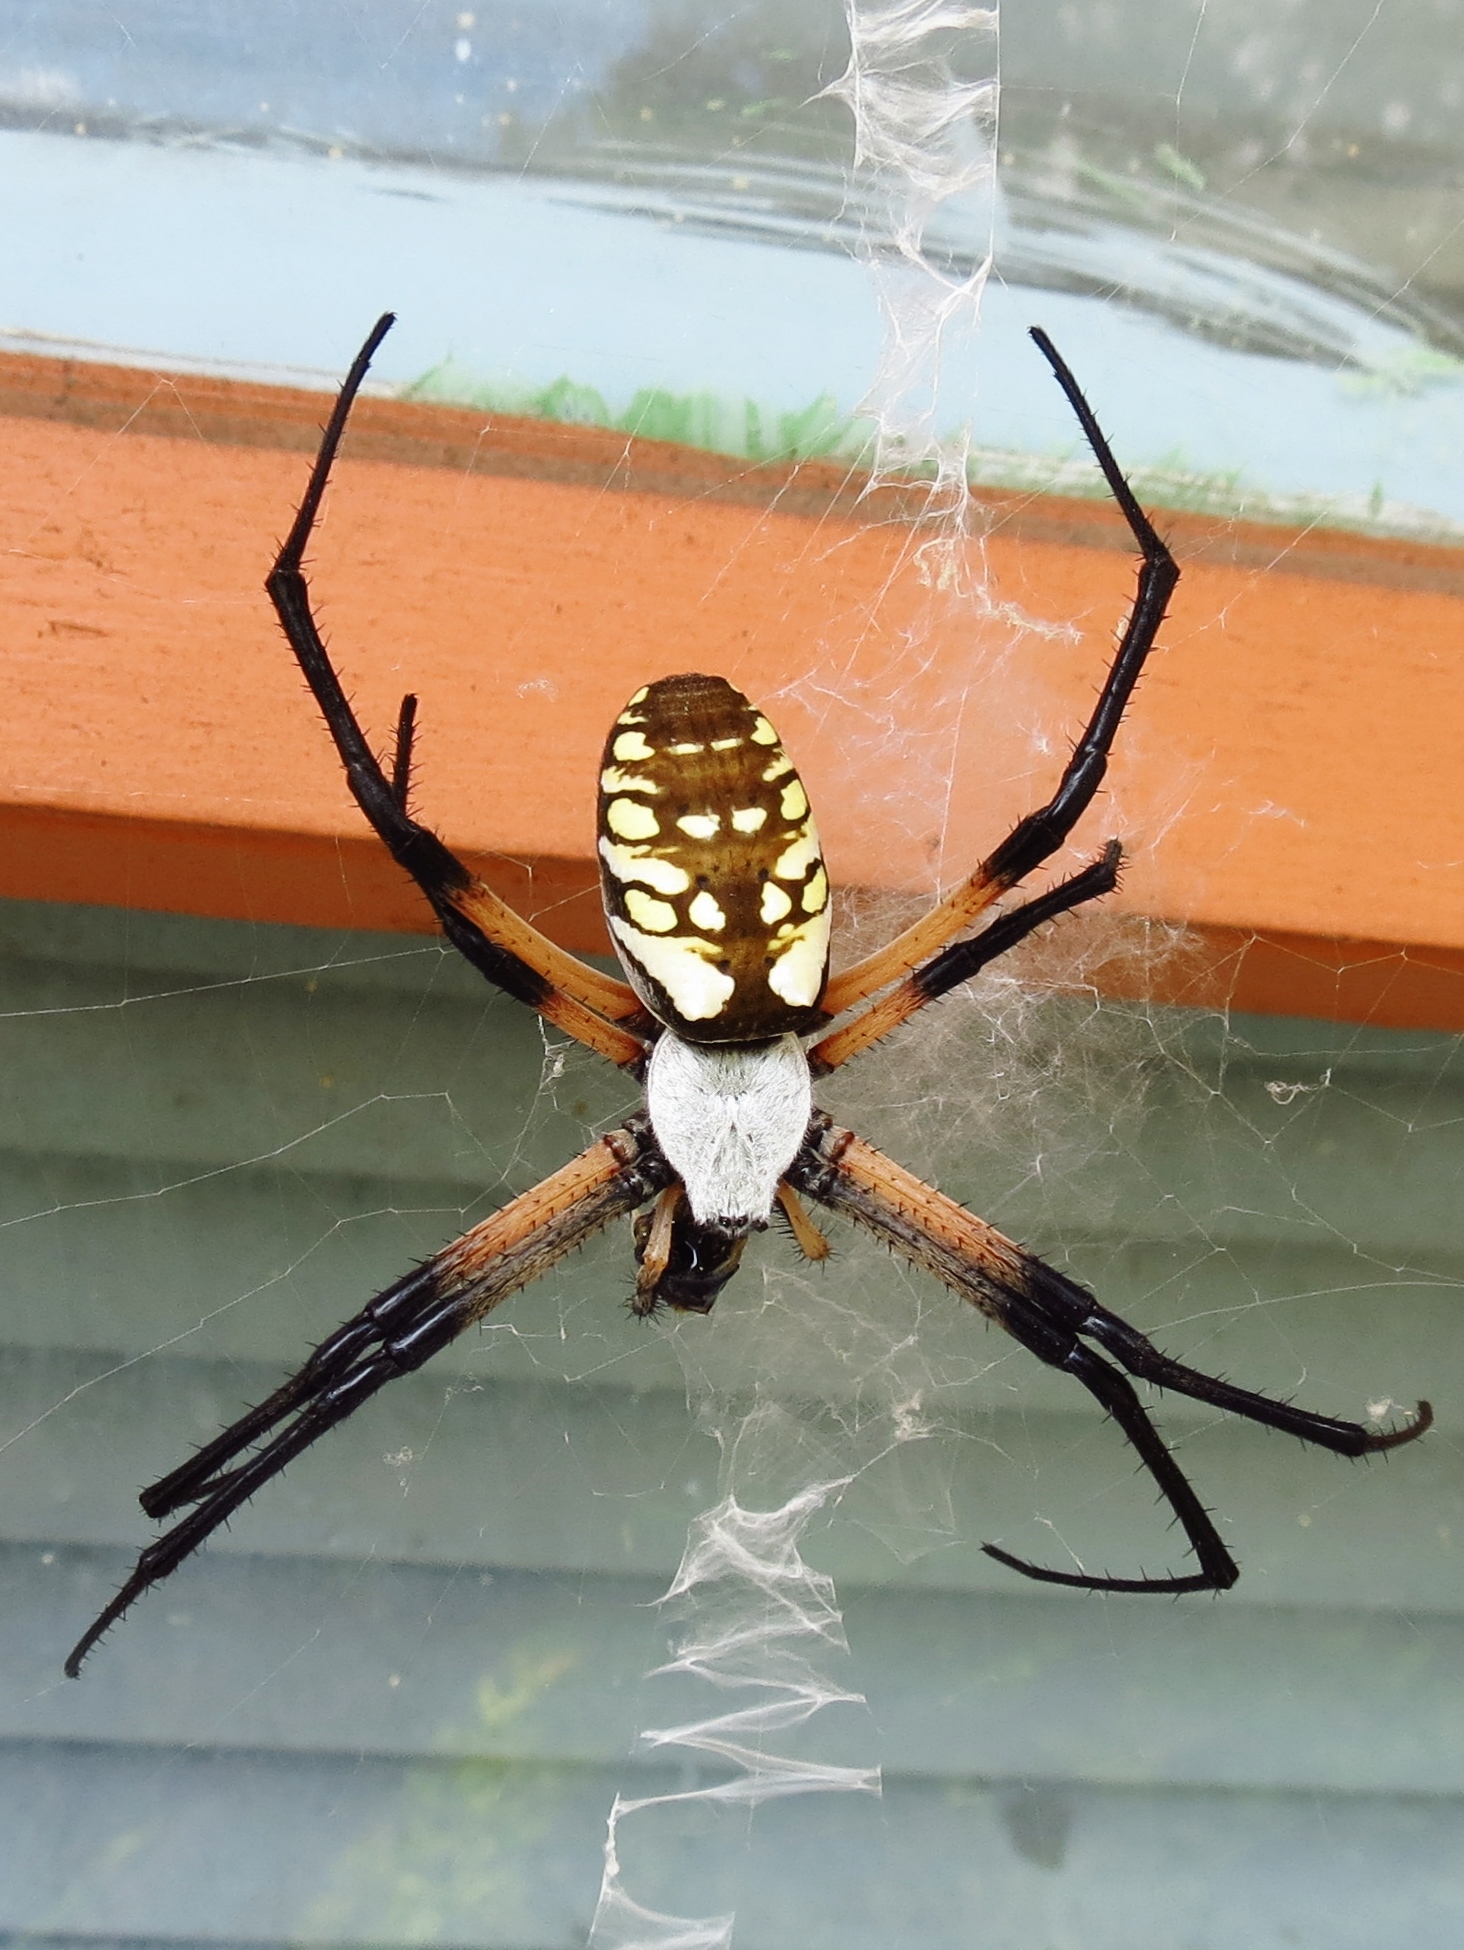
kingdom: Animalia
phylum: Arthropoda
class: Arachnida
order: Araneae
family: Araneidae
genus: Argiope
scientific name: Argiope aurantia
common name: Orb weavers
